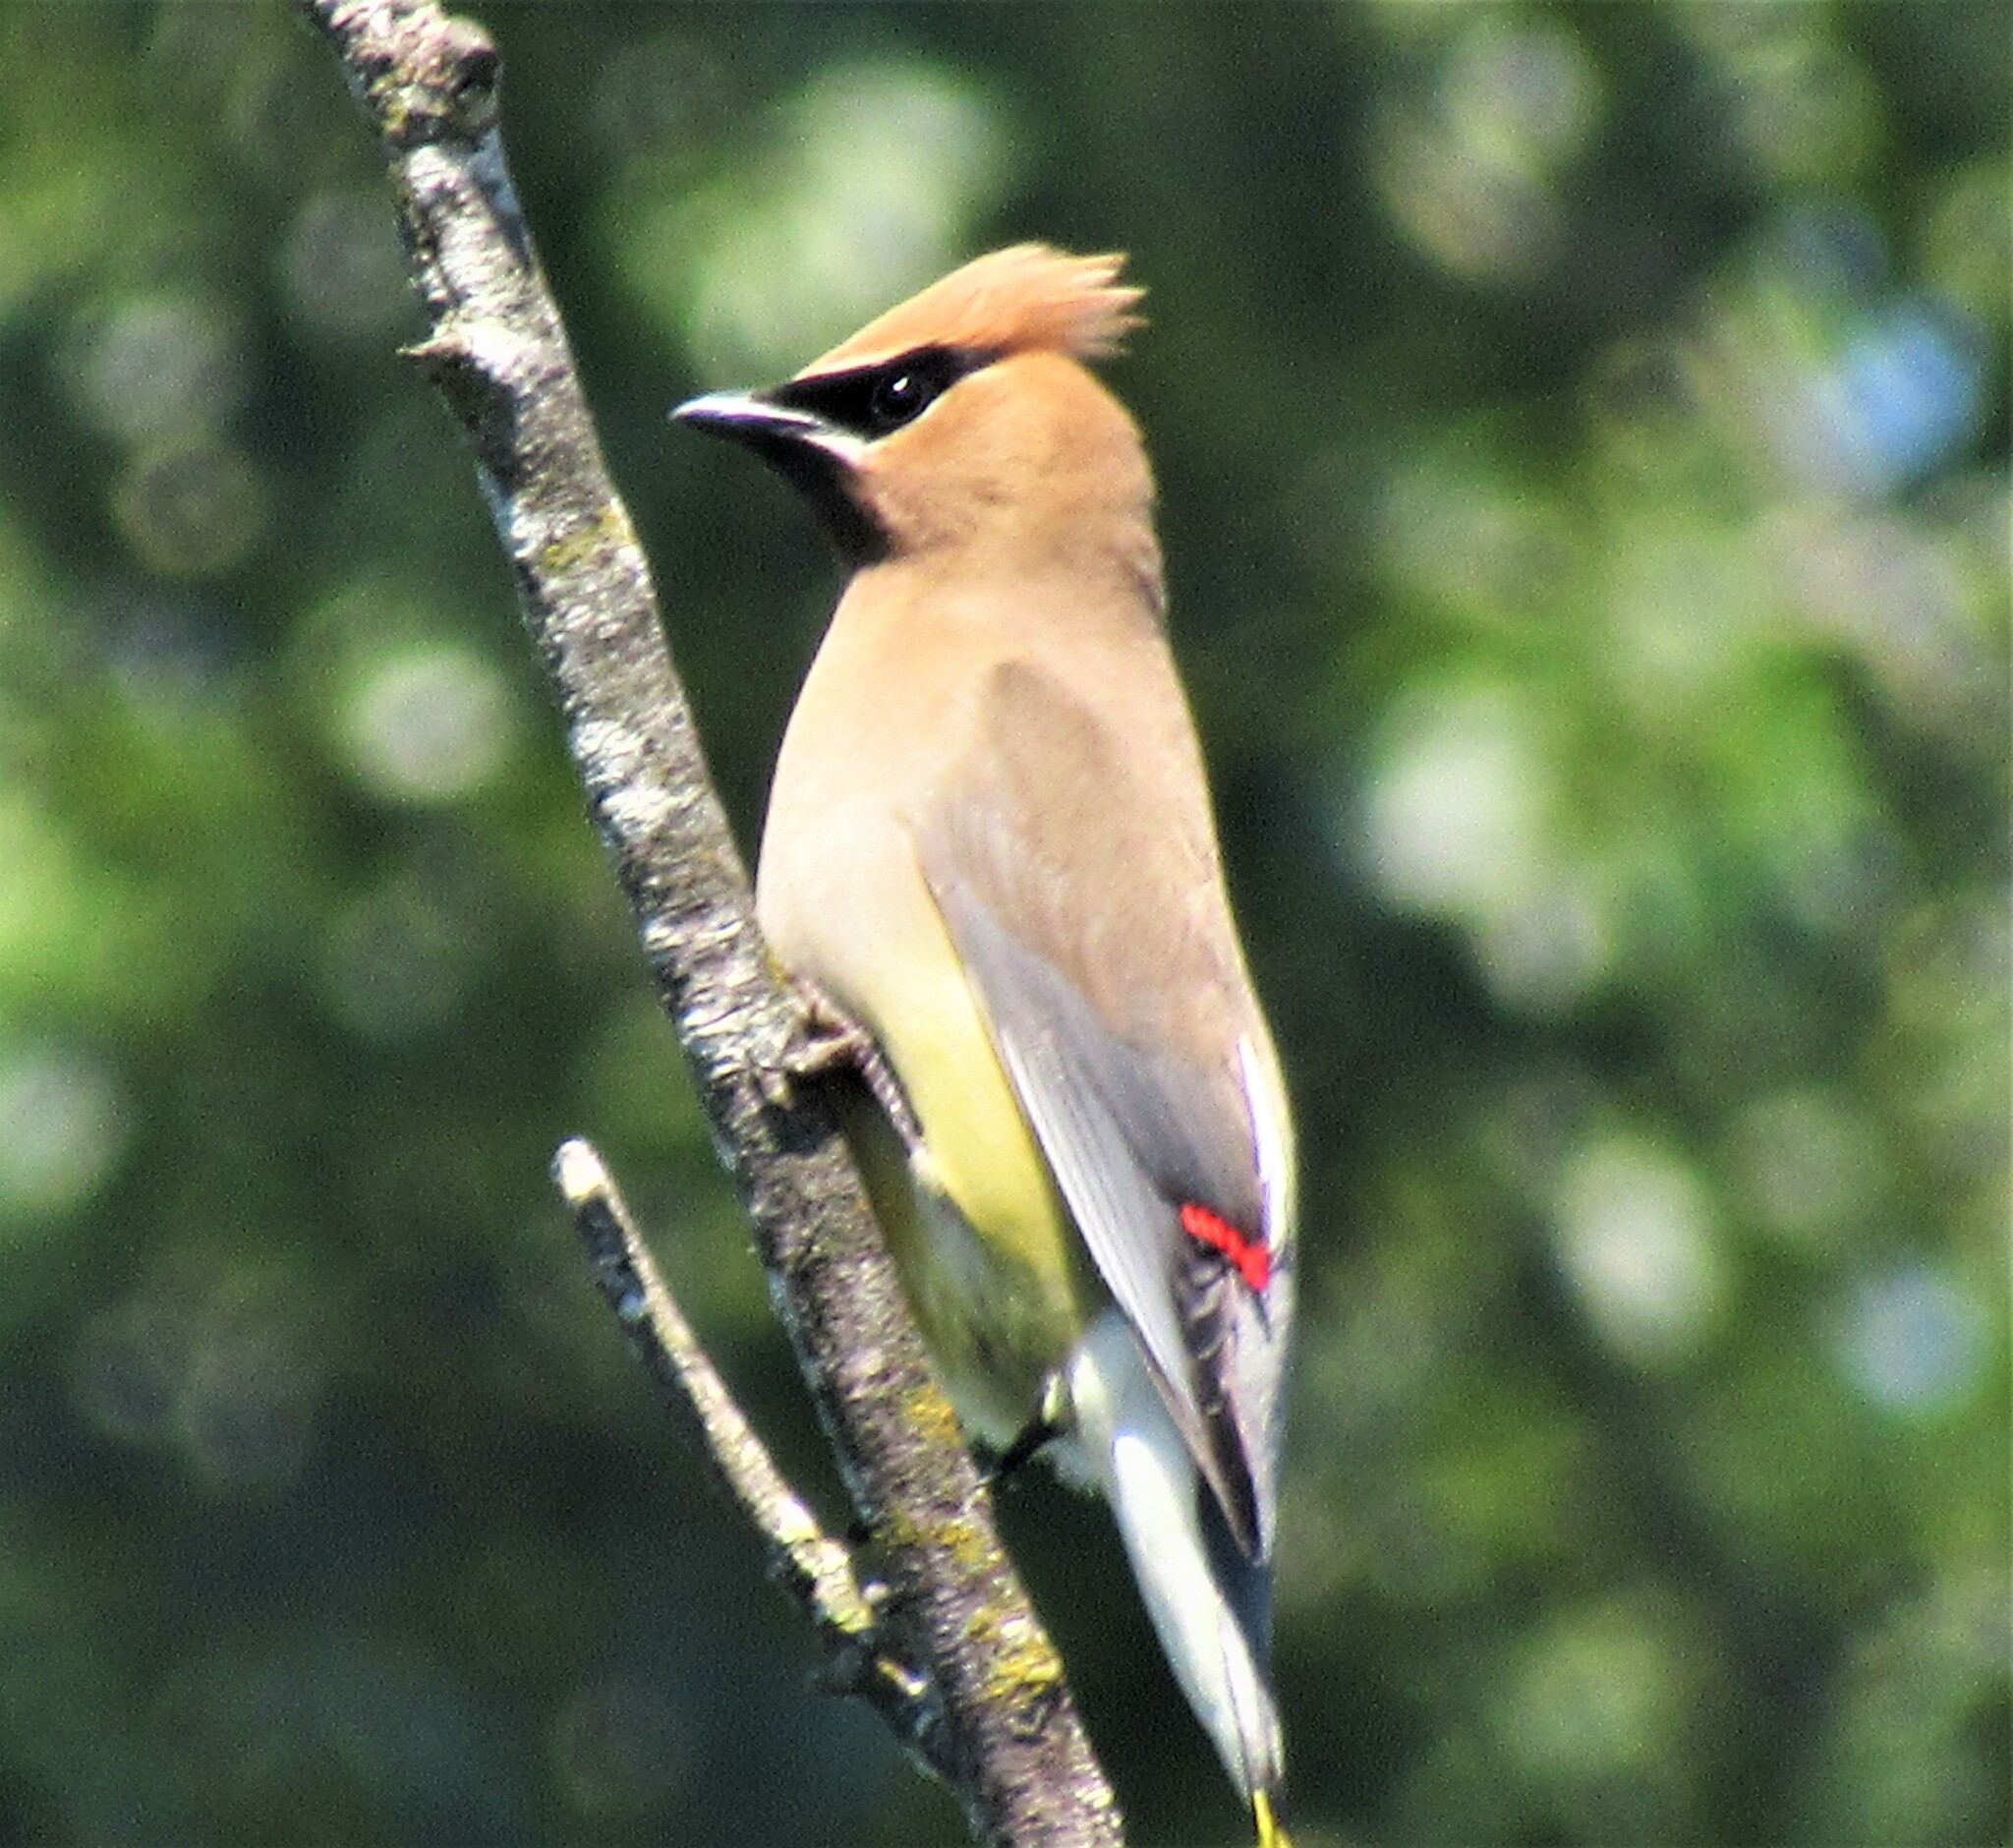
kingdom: Animalia
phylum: Chordata
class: Aves
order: Passeriformes
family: Bombycillidae
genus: Bombycilla
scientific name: Bombycilla cedrorum
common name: Cedar waxwing
